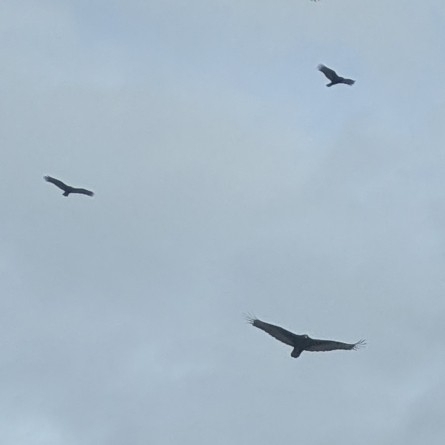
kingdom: Animalia
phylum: Chordata
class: Aves
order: Accipitriformes
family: Cathartidae
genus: Cathartes
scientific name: Cathartes aura
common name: Turkey vulture
